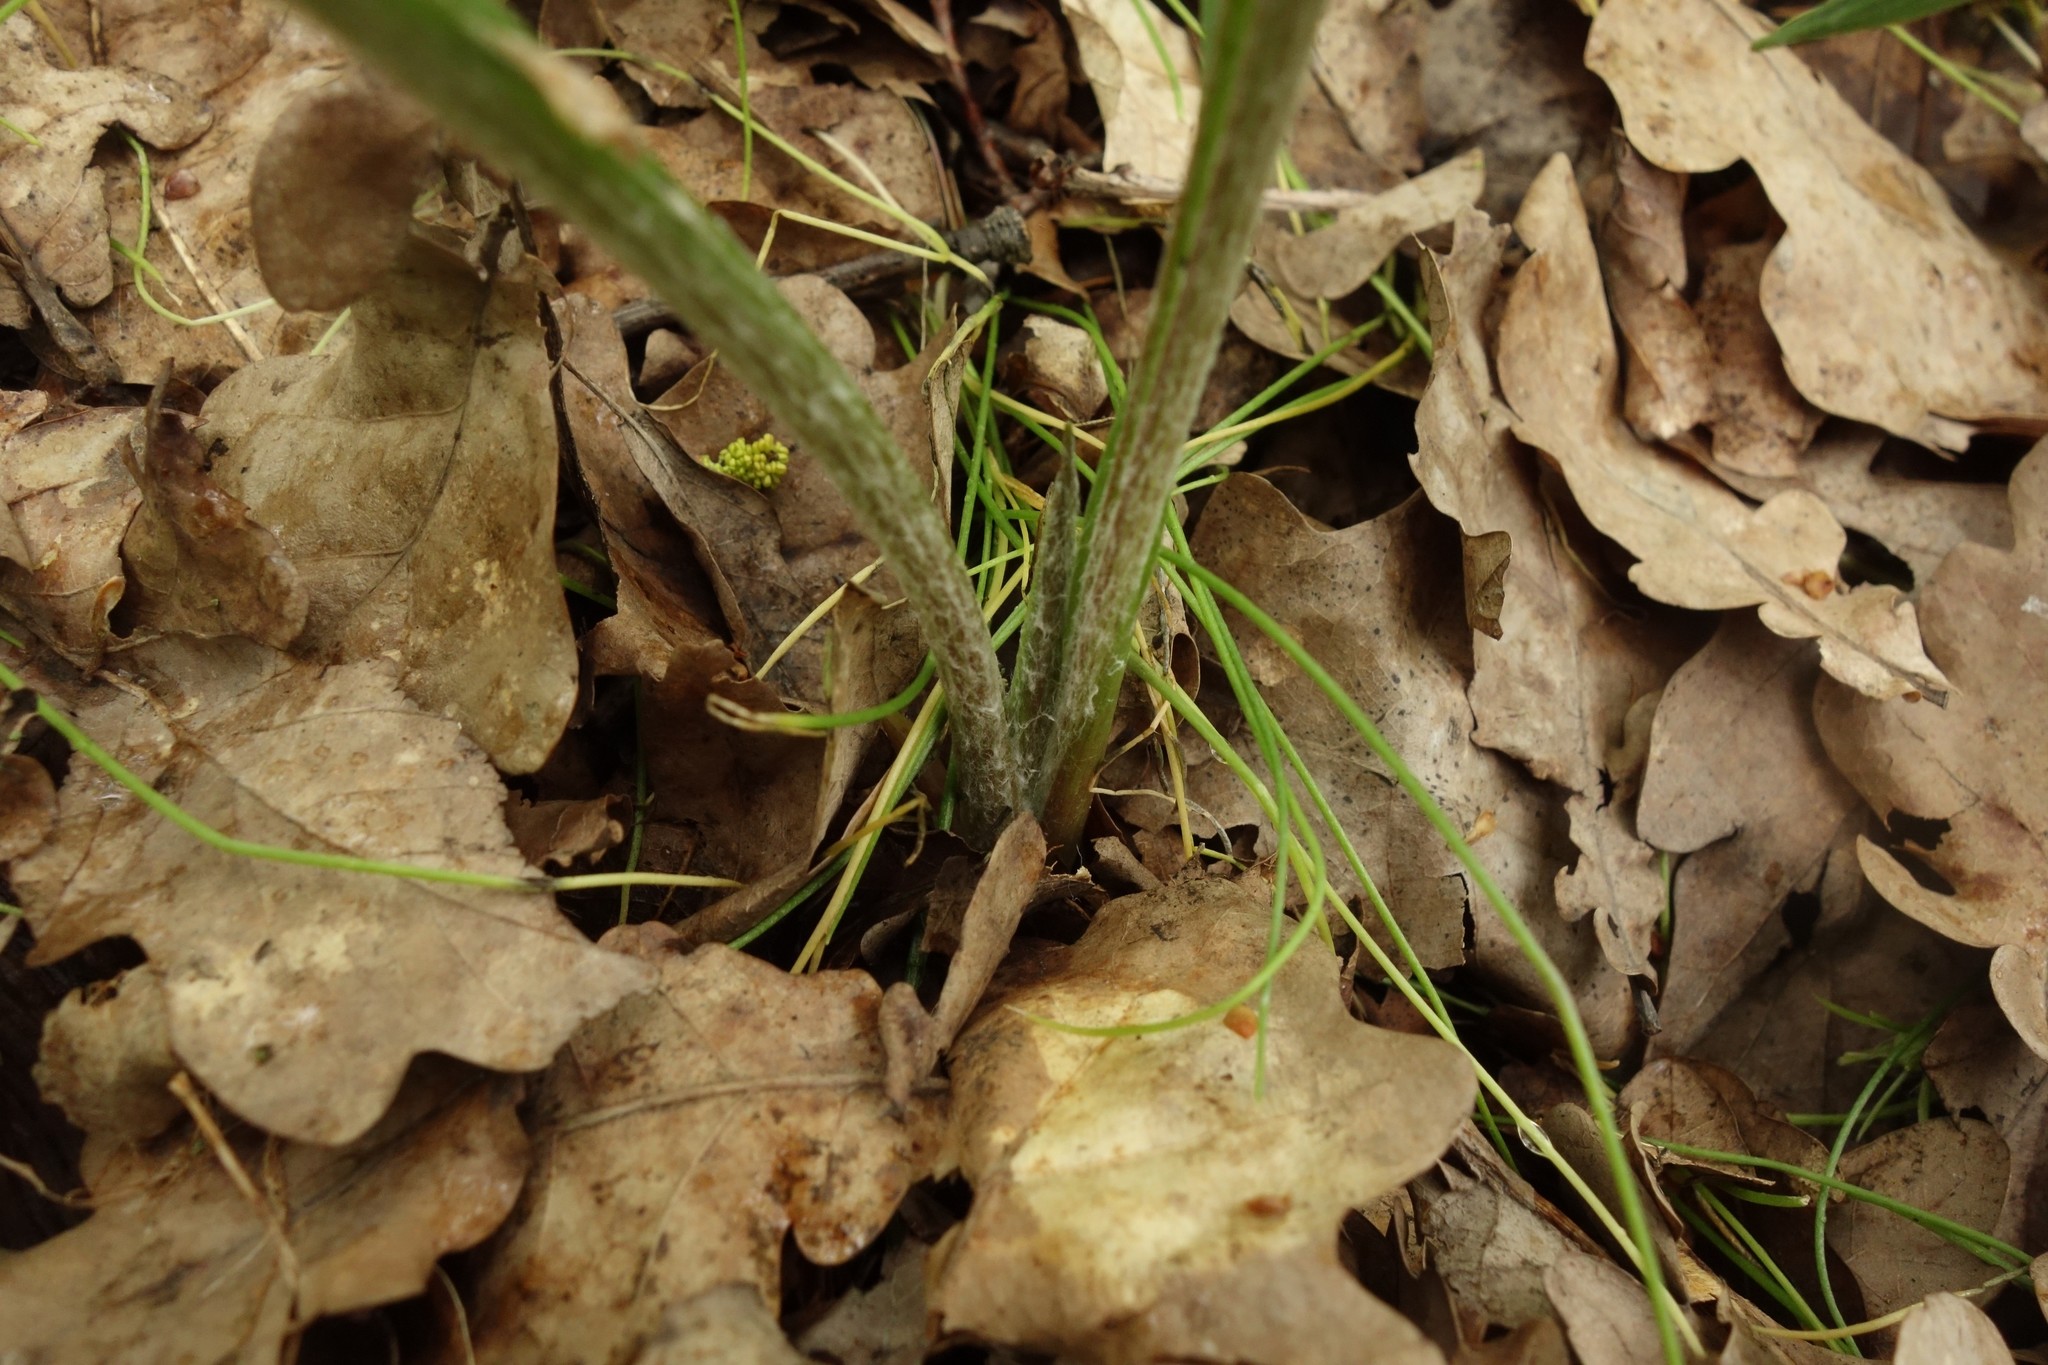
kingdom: Plantae
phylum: Tracheophyta
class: Magnoliopsida
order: Asterales
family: Asteraceae
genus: Scorzonera
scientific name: Scorzonera humilis
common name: Viper's-grass
